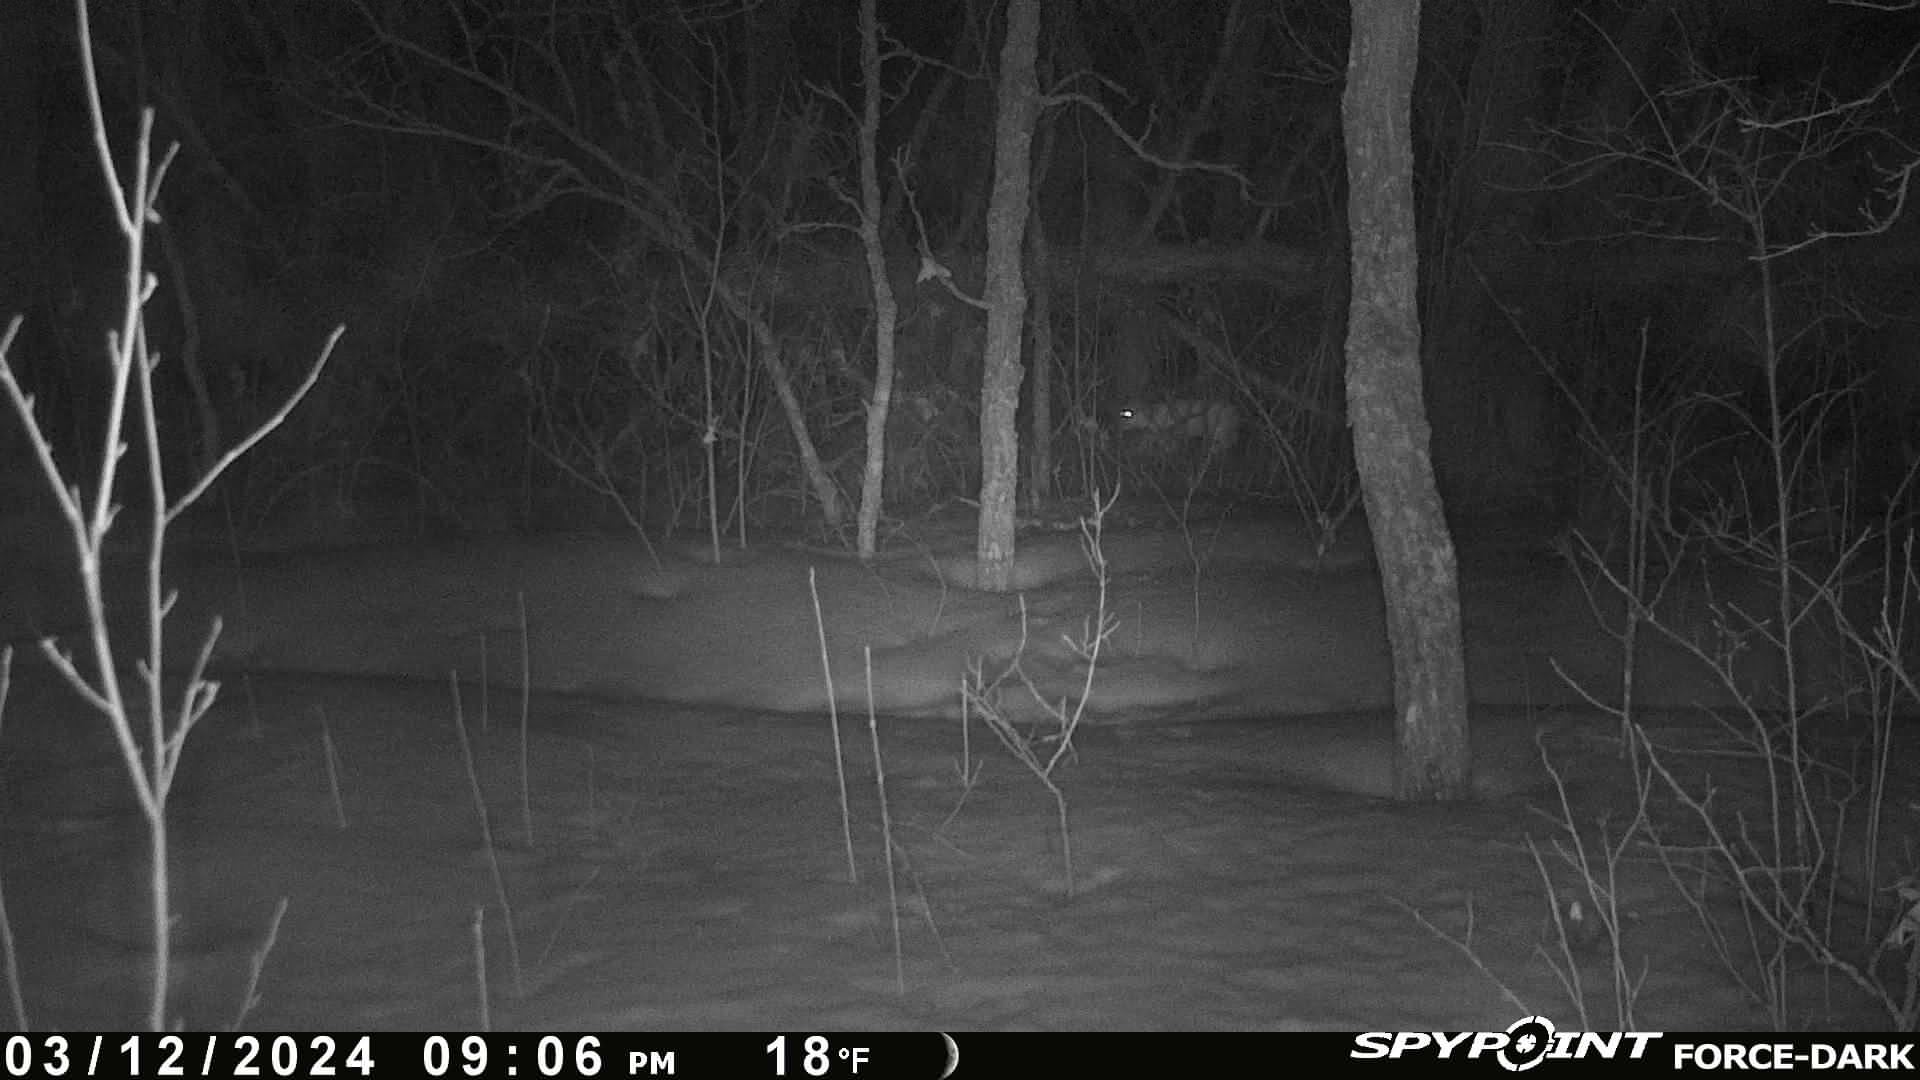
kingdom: Animalia
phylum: Chordata
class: Mammalia
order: Lagomorpha
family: Leporidae
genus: Lepus
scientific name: Lepus americanus
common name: Snowshoe hare
